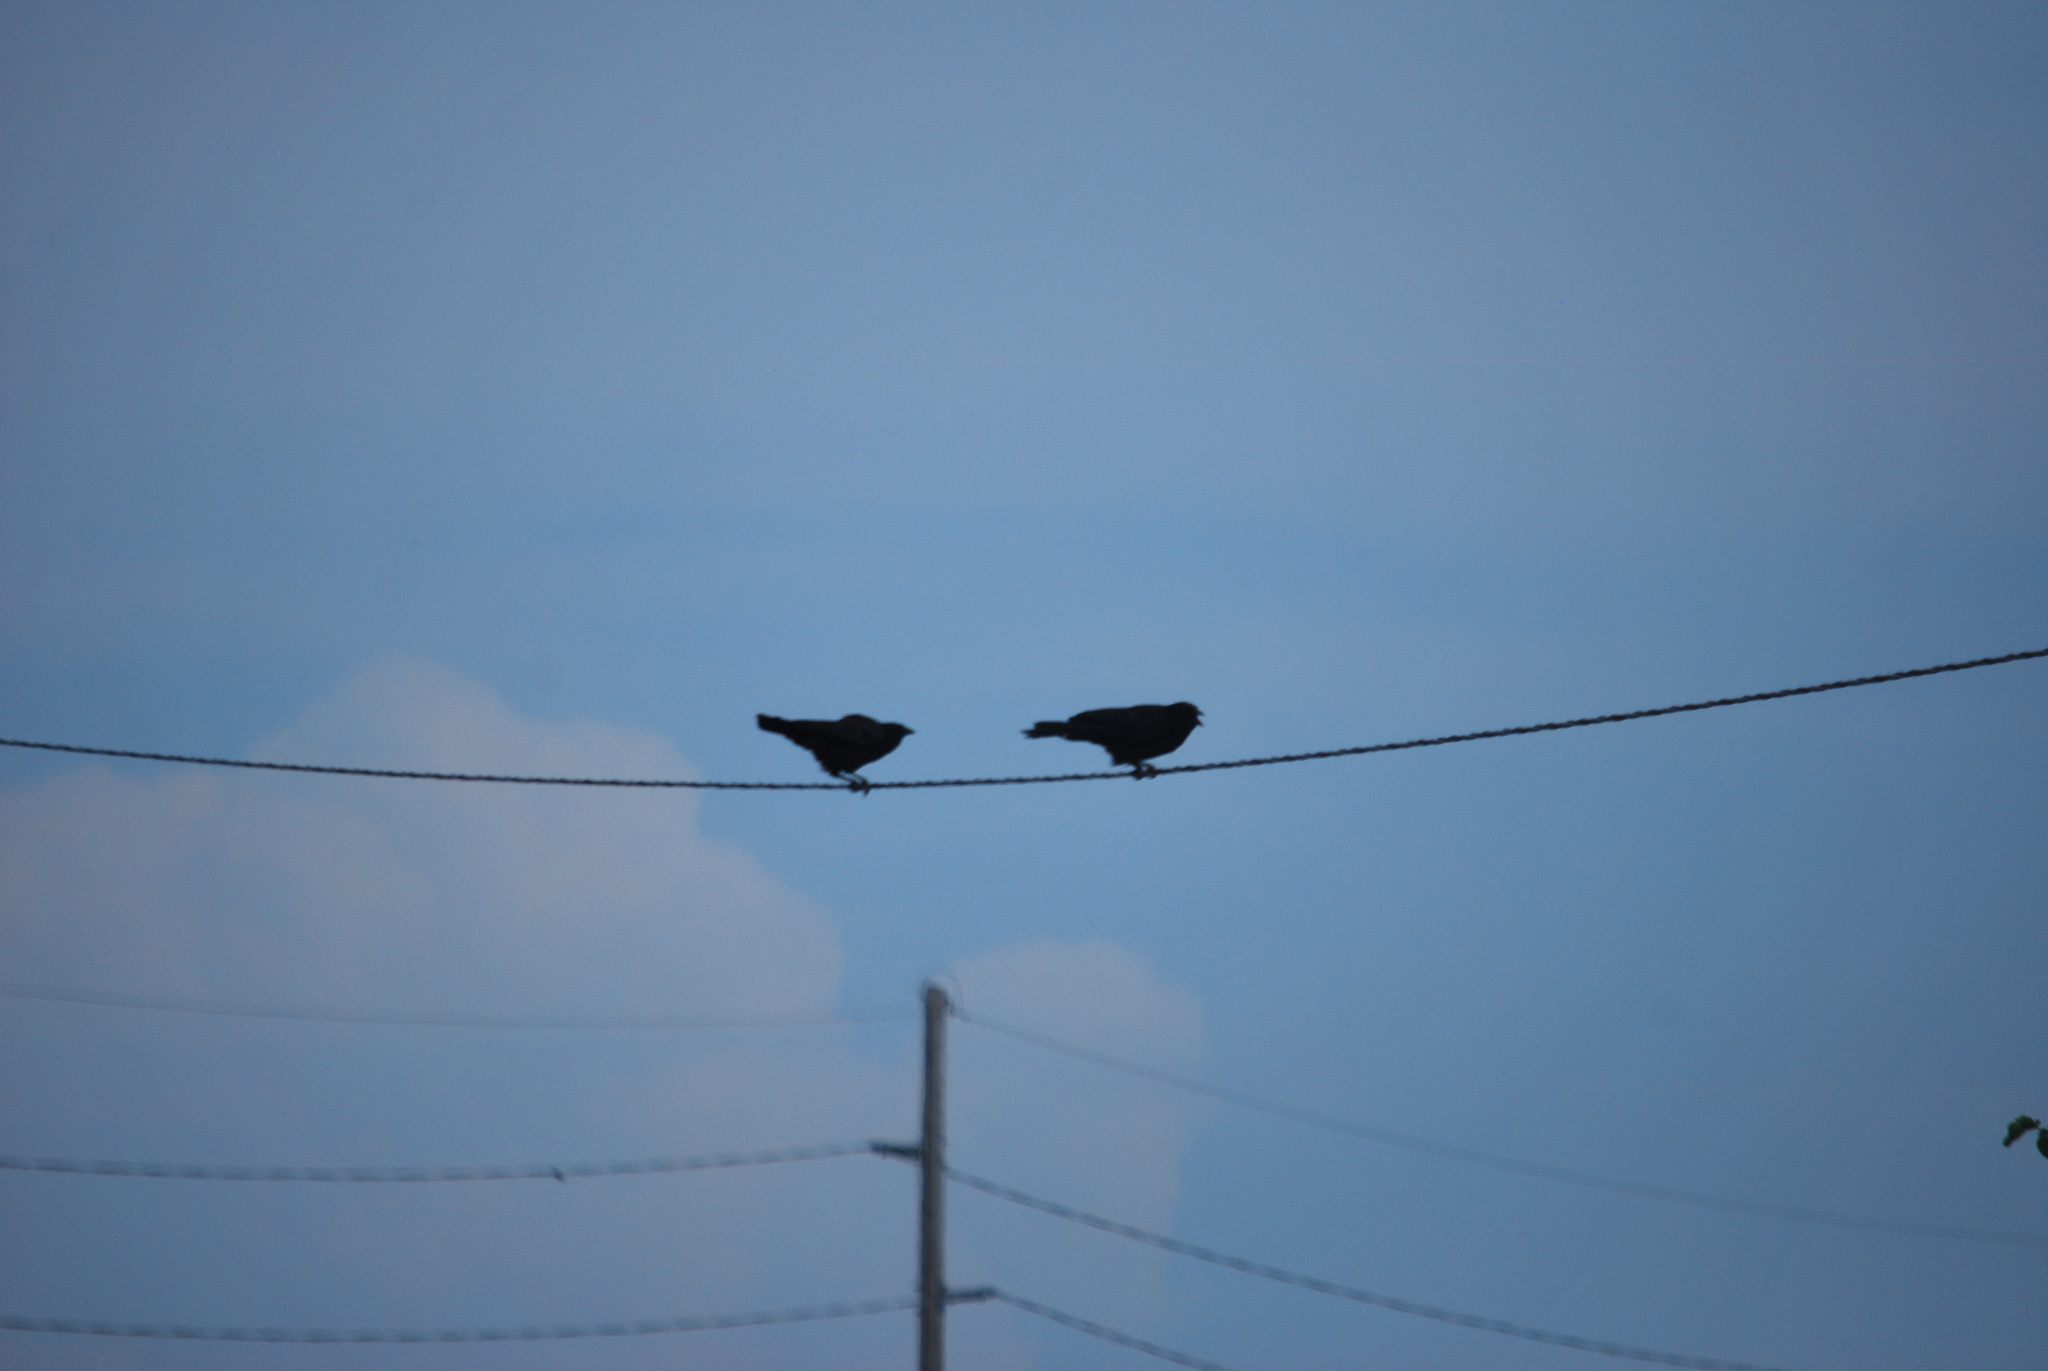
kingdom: Animalia
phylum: Chordata
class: Aves
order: Passeriformes
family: Corvidae
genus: Corvus
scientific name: Corvus brachyrhynchos
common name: American crow
